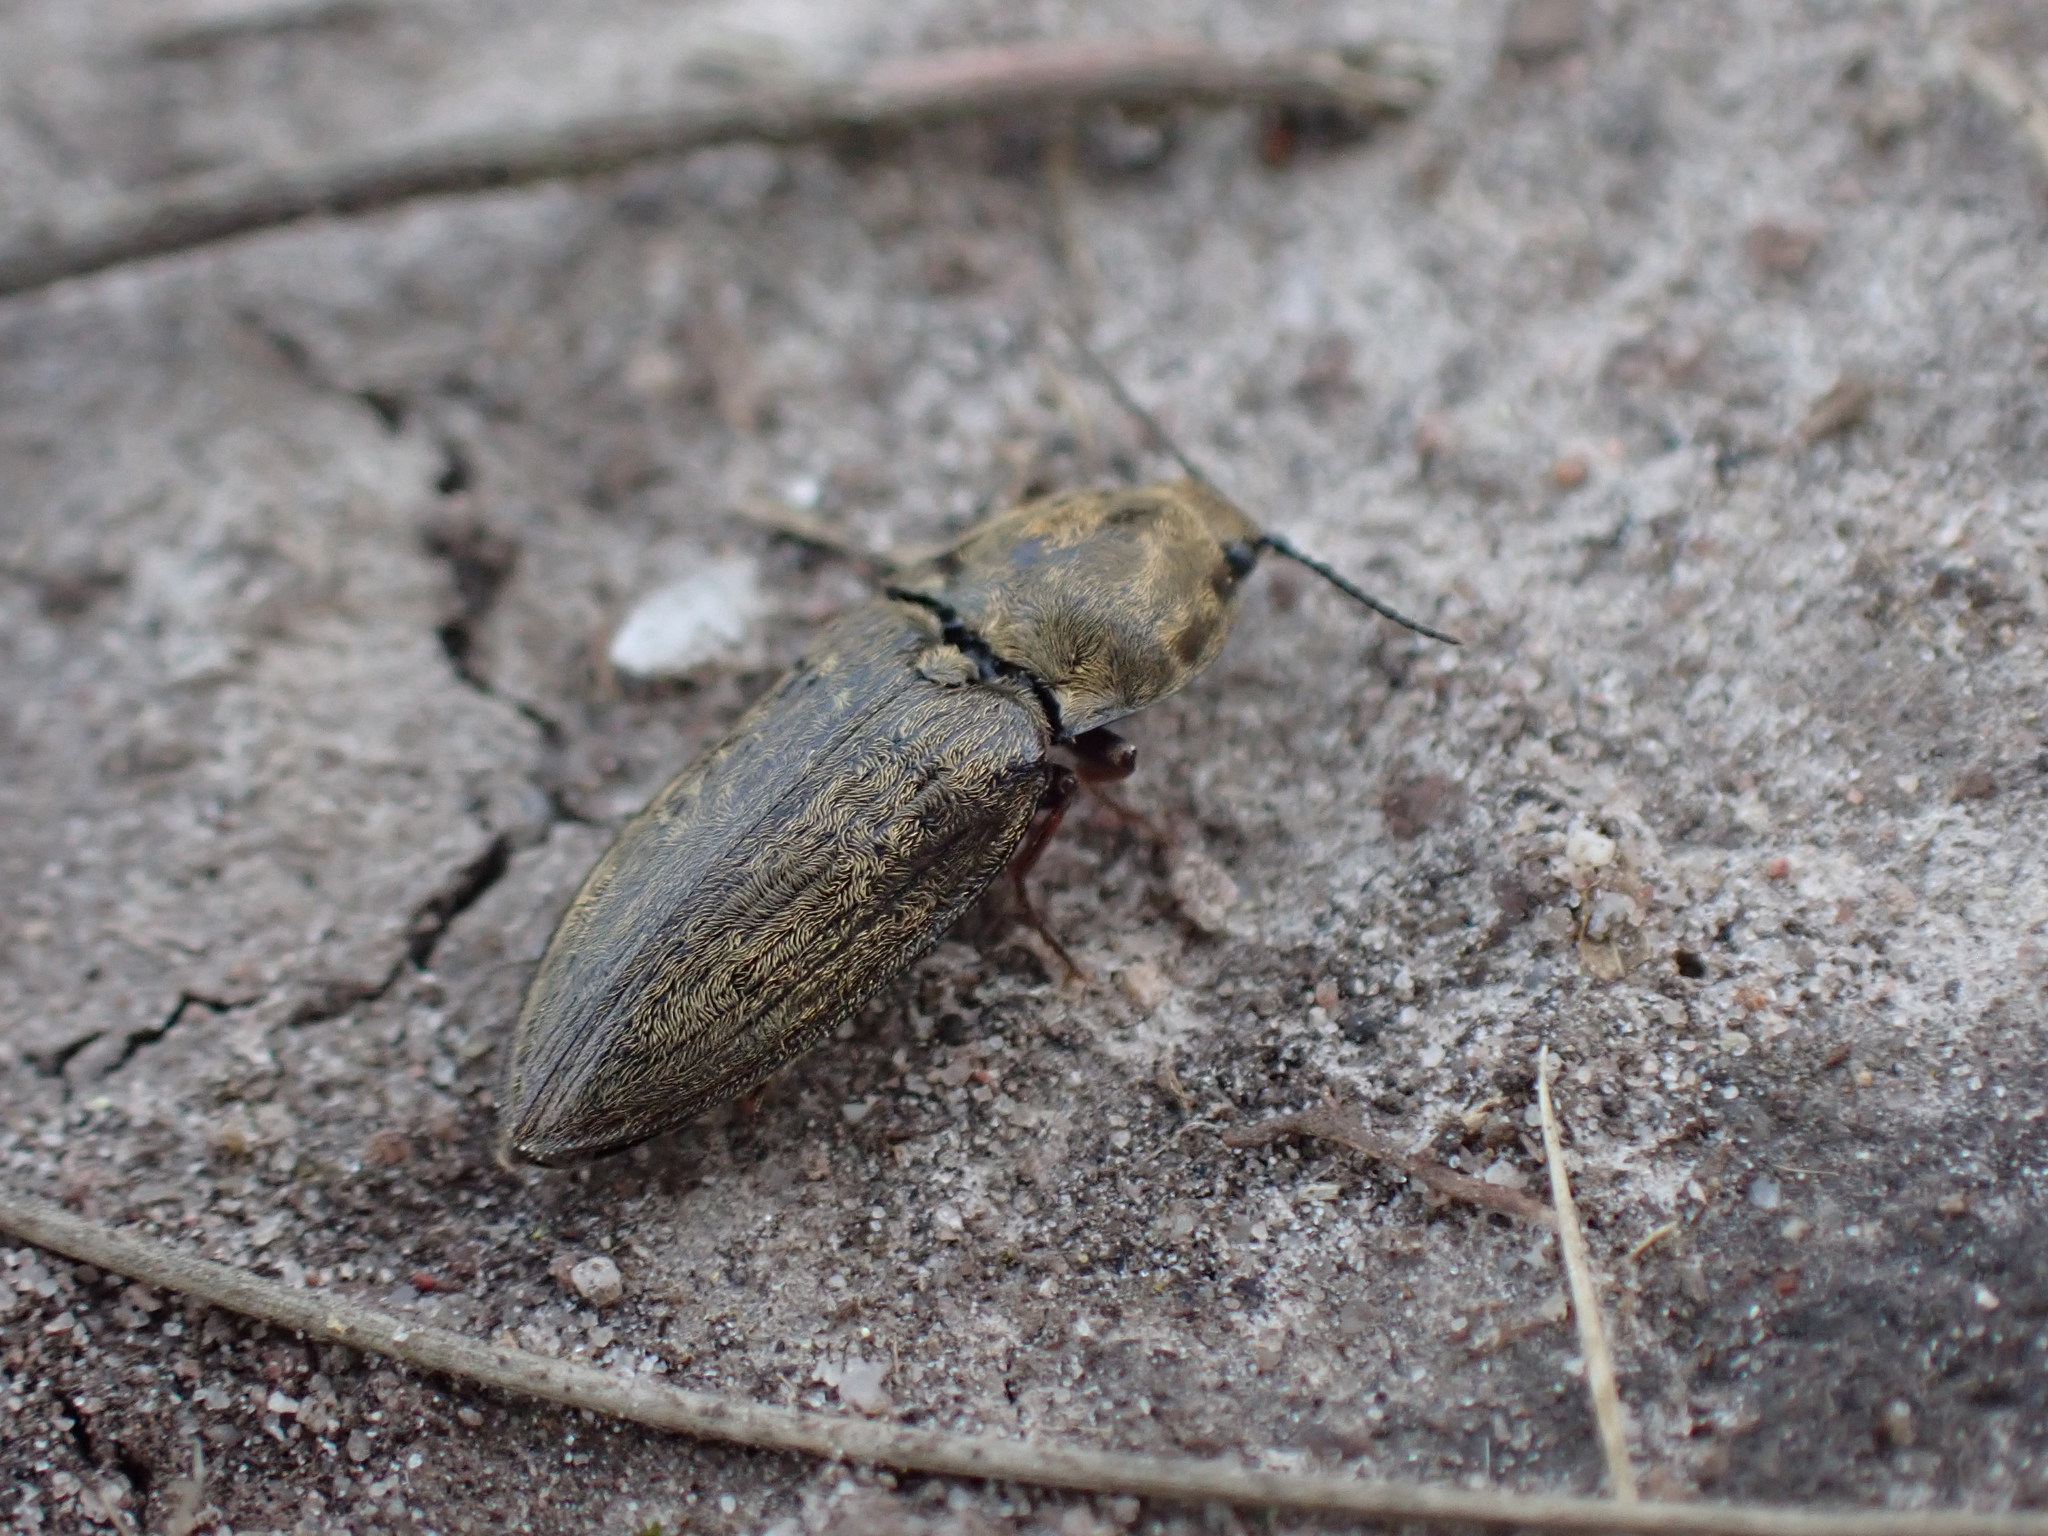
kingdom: Animalia
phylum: Arthropoda
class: Insecta
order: Coleoptera
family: Elateridae
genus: Prosternon
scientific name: Prosternon tessellatum
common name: Chequered click beetle
